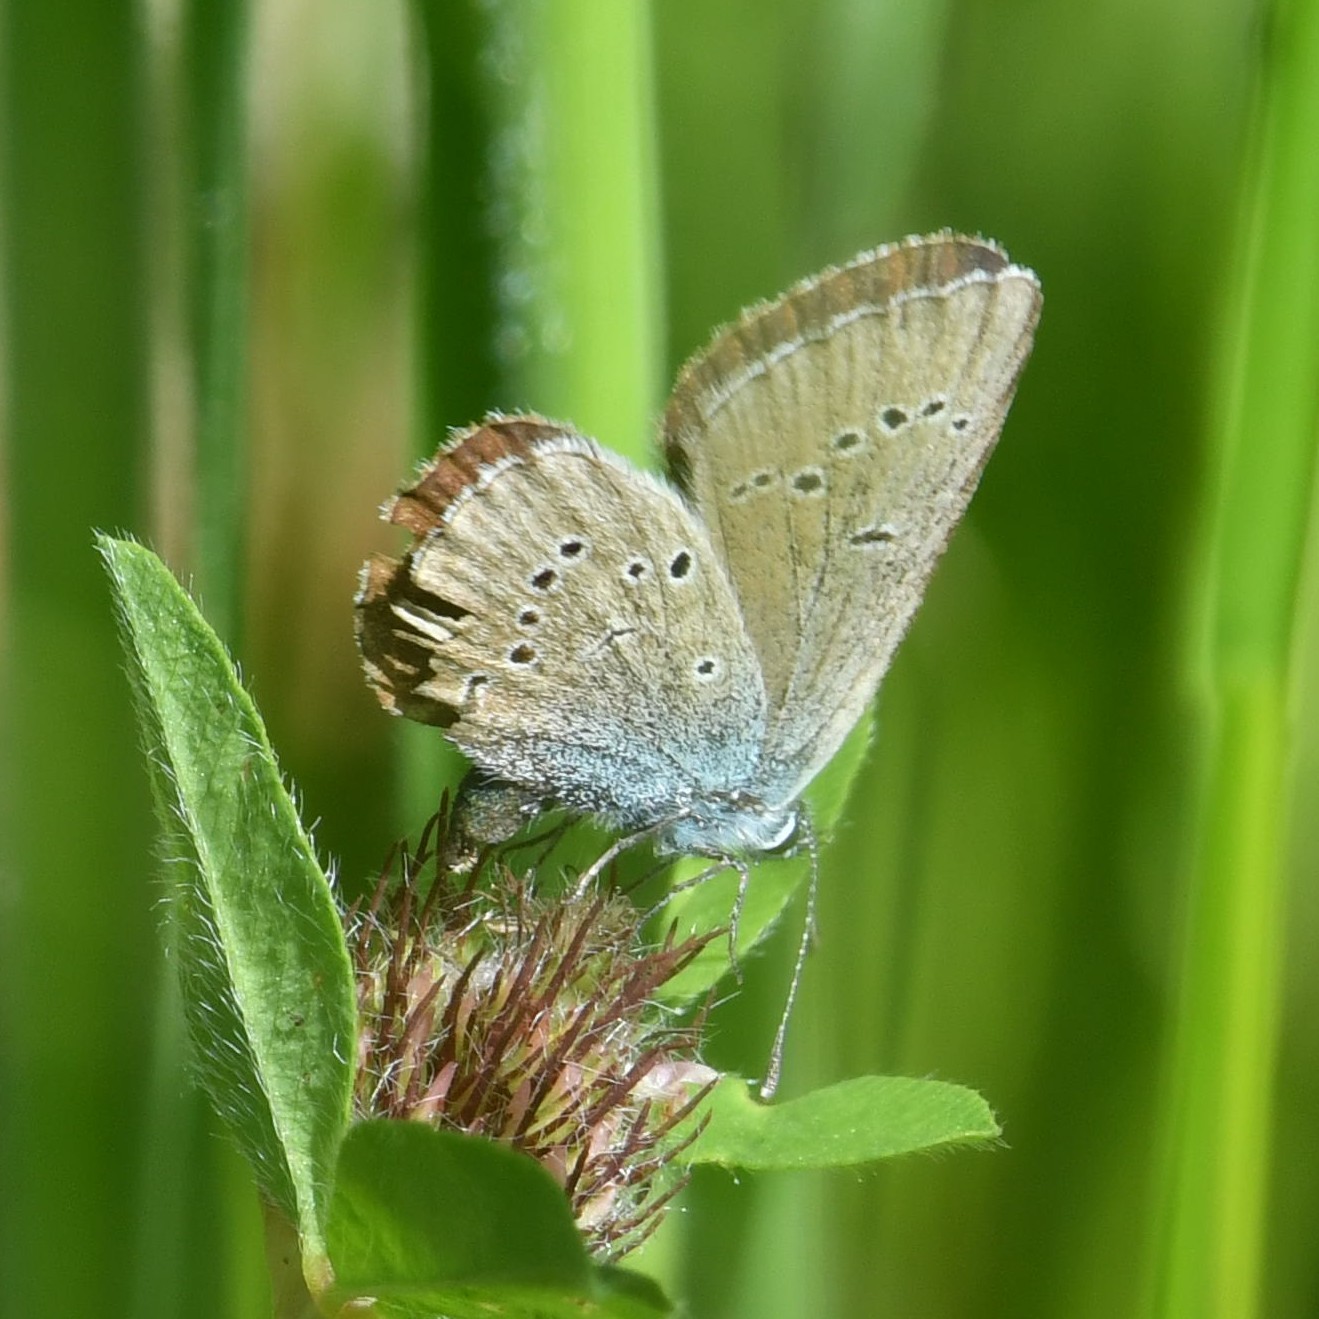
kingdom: Animalia
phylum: Arthropoda
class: Insecta
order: Lepidoptera
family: Lycaenidae
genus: Cyaniris
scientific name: Cyaniris semiargus
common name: Mazarine blue
